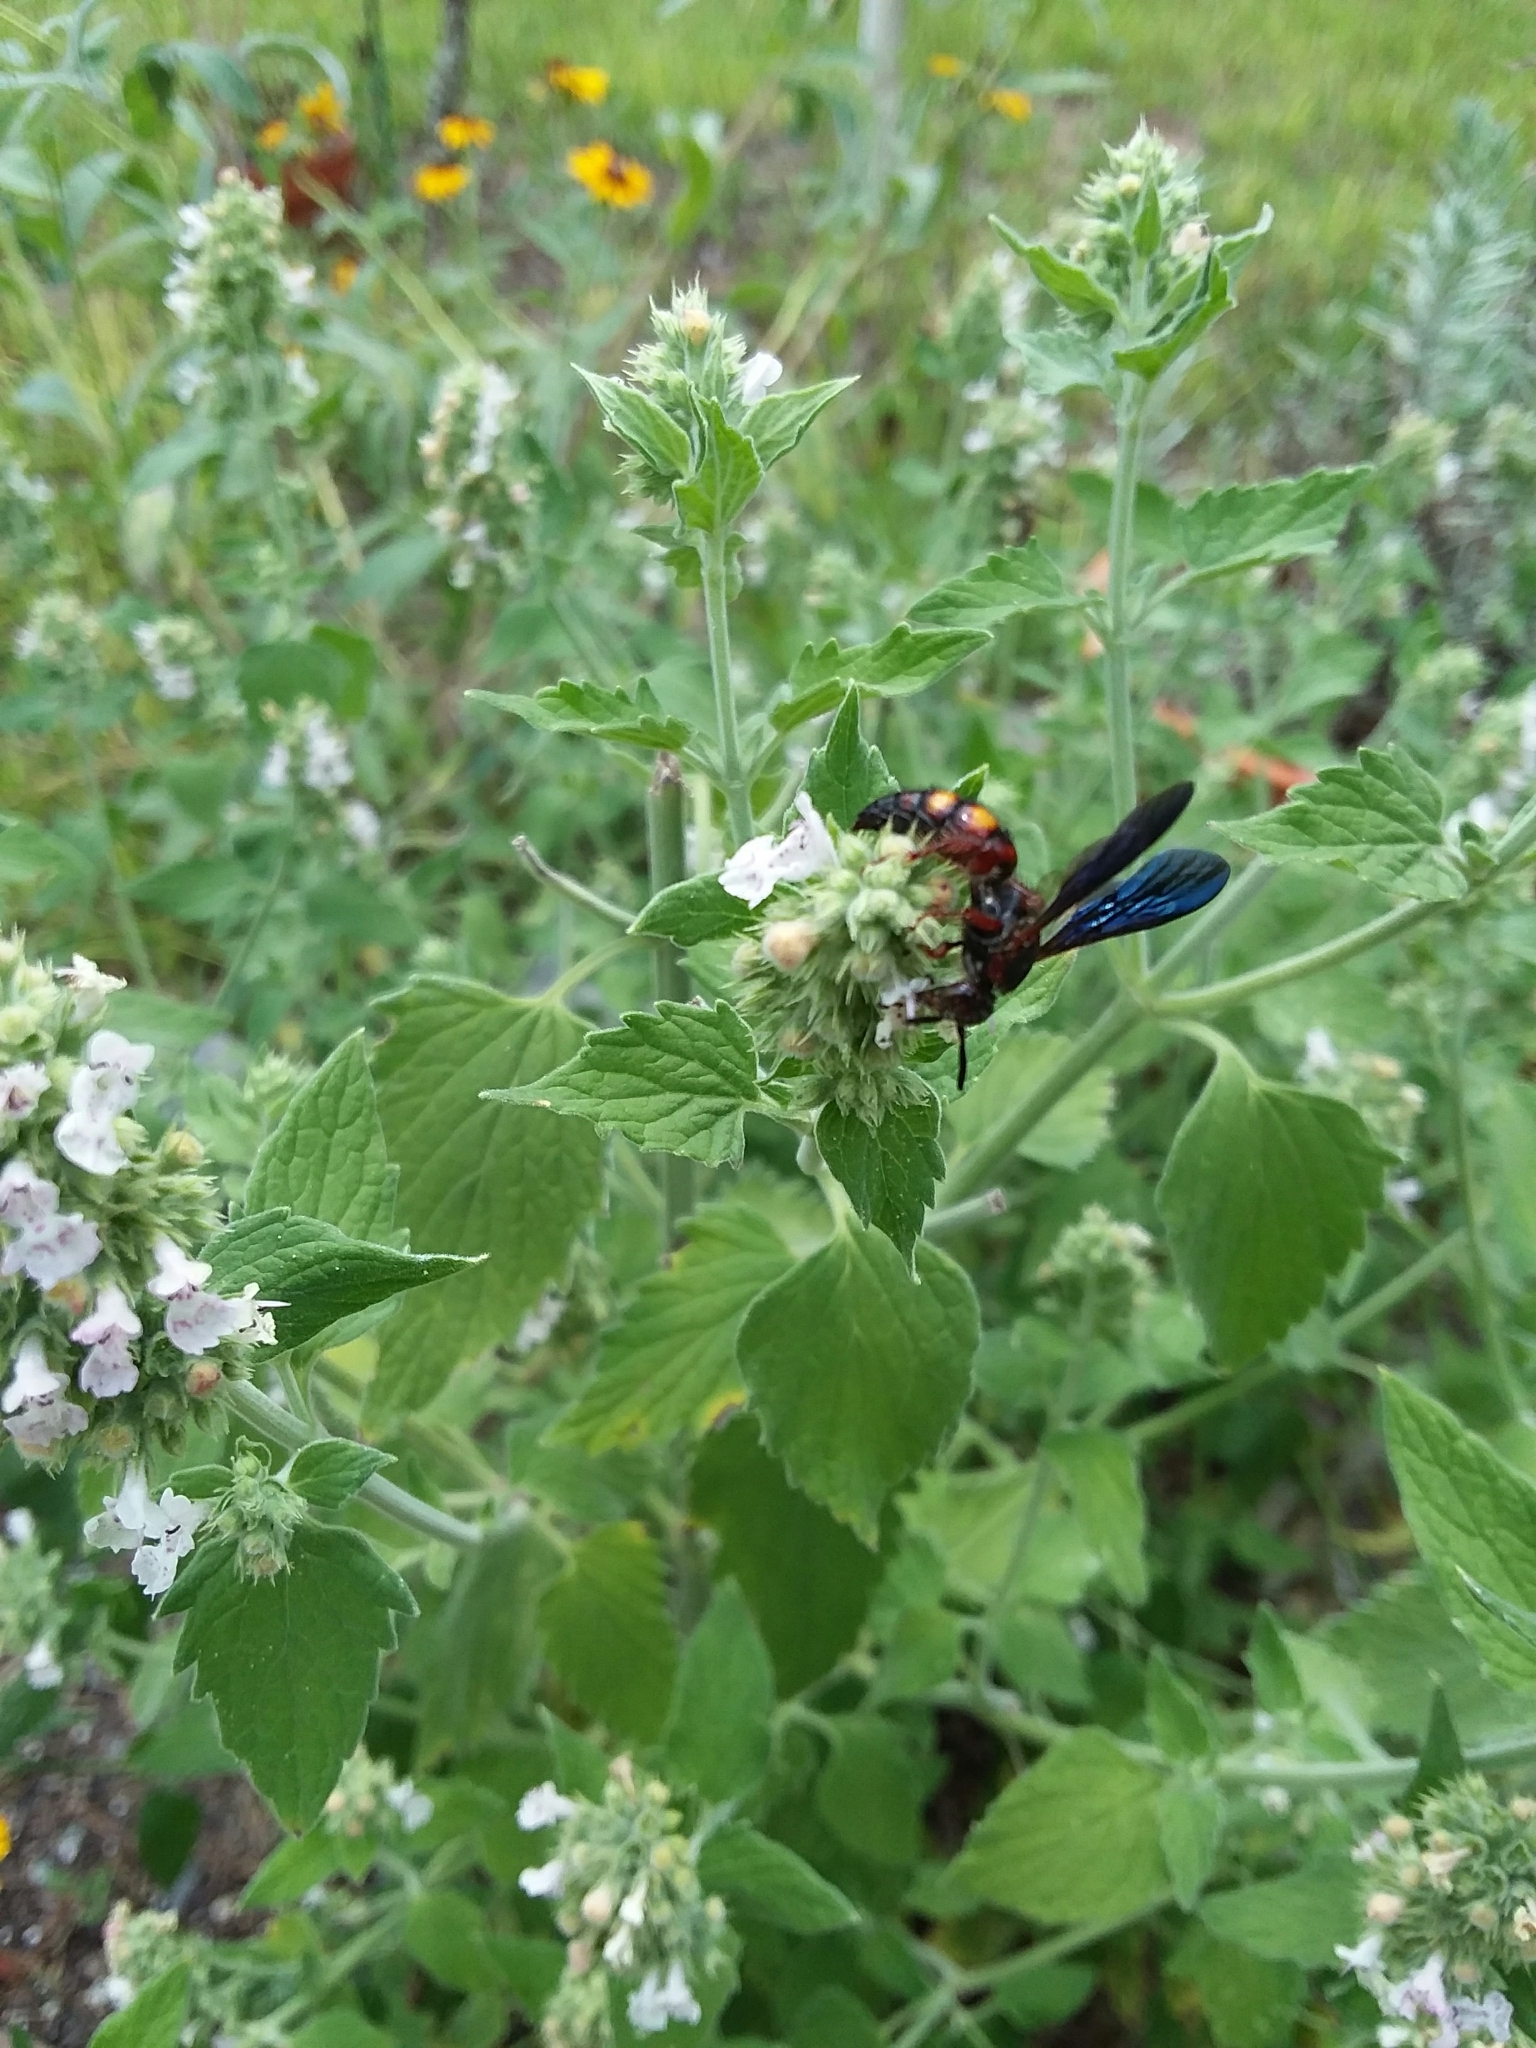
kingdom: Animalia
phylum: Arthropoda
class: Insecta
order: Hymenoptera
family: Scoliidae
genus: Scolia
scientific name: Scolia nobilitata
